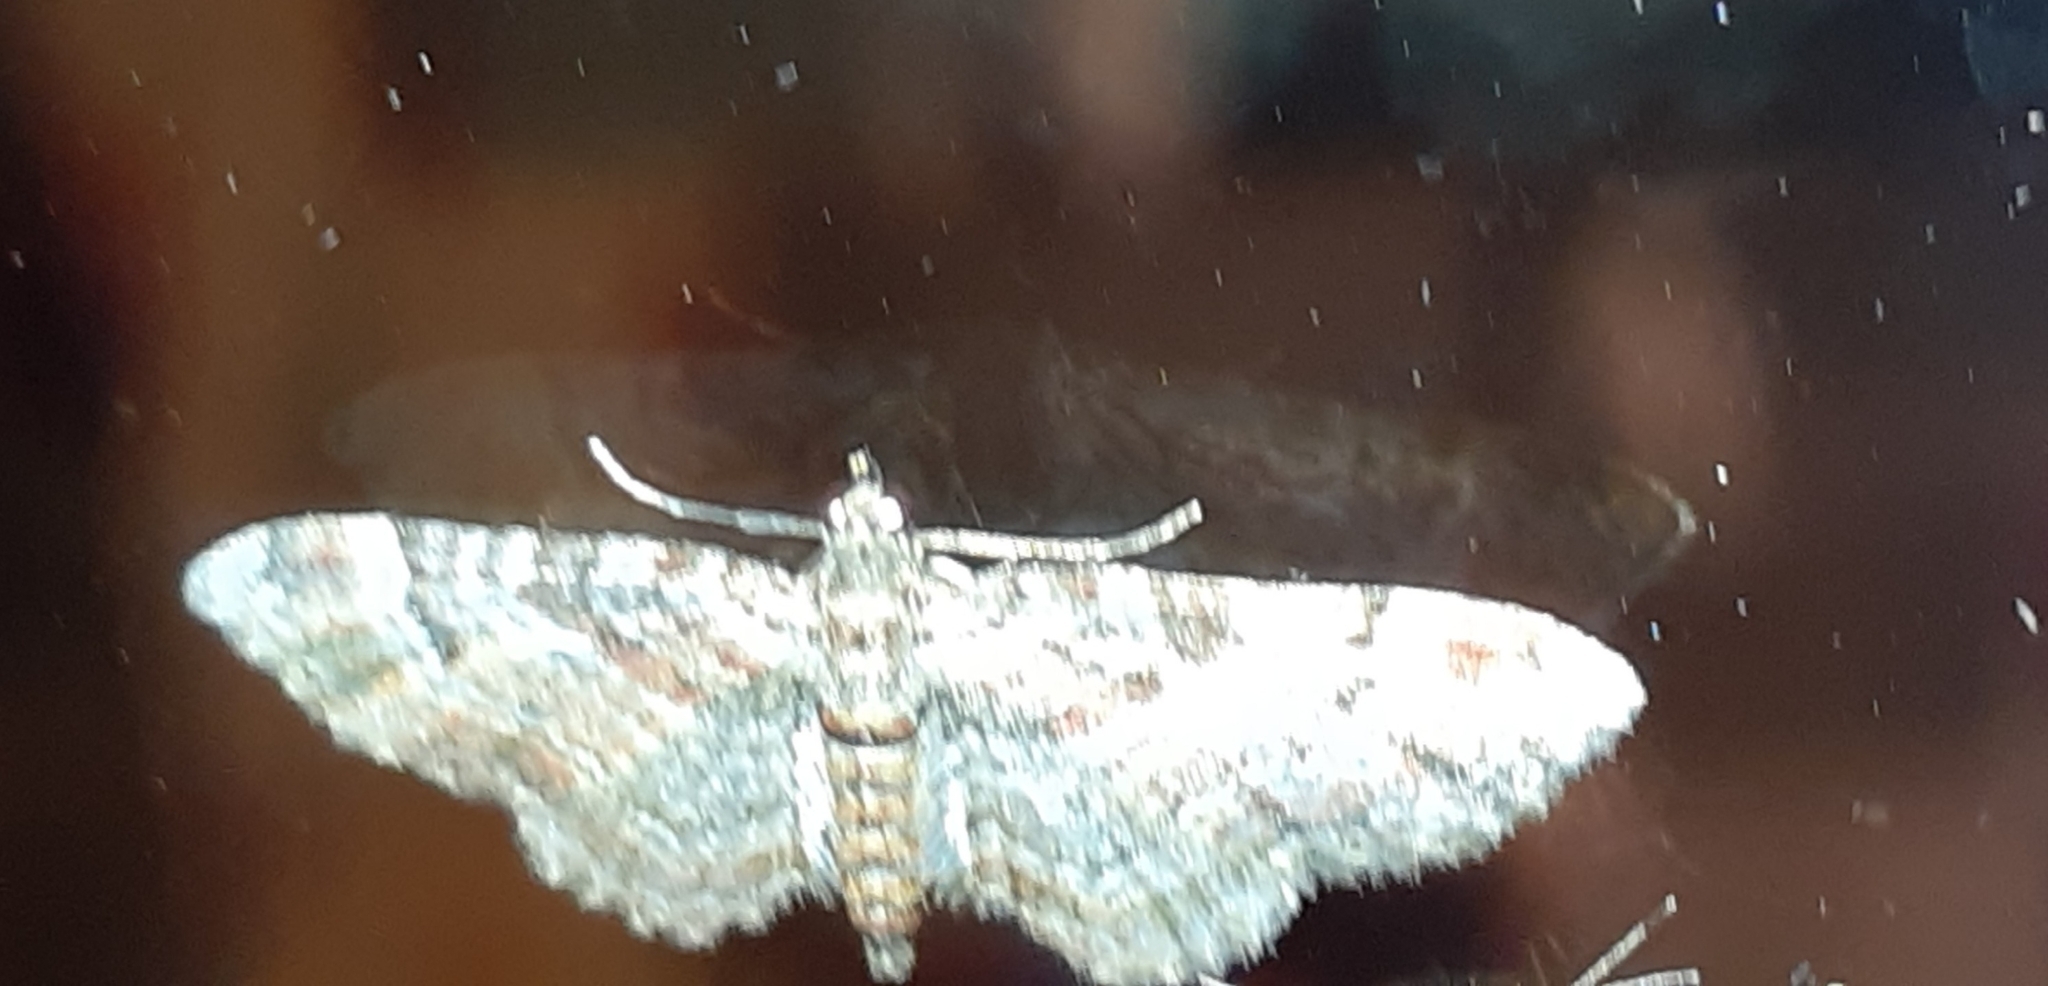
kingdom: Animalia
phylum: Arthropoda
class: Insecta
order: Lepidoptera
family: Geometridae
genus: Gymnoscelis
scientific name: Gymnoscelis rufifasciata
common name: Double-striped pug
